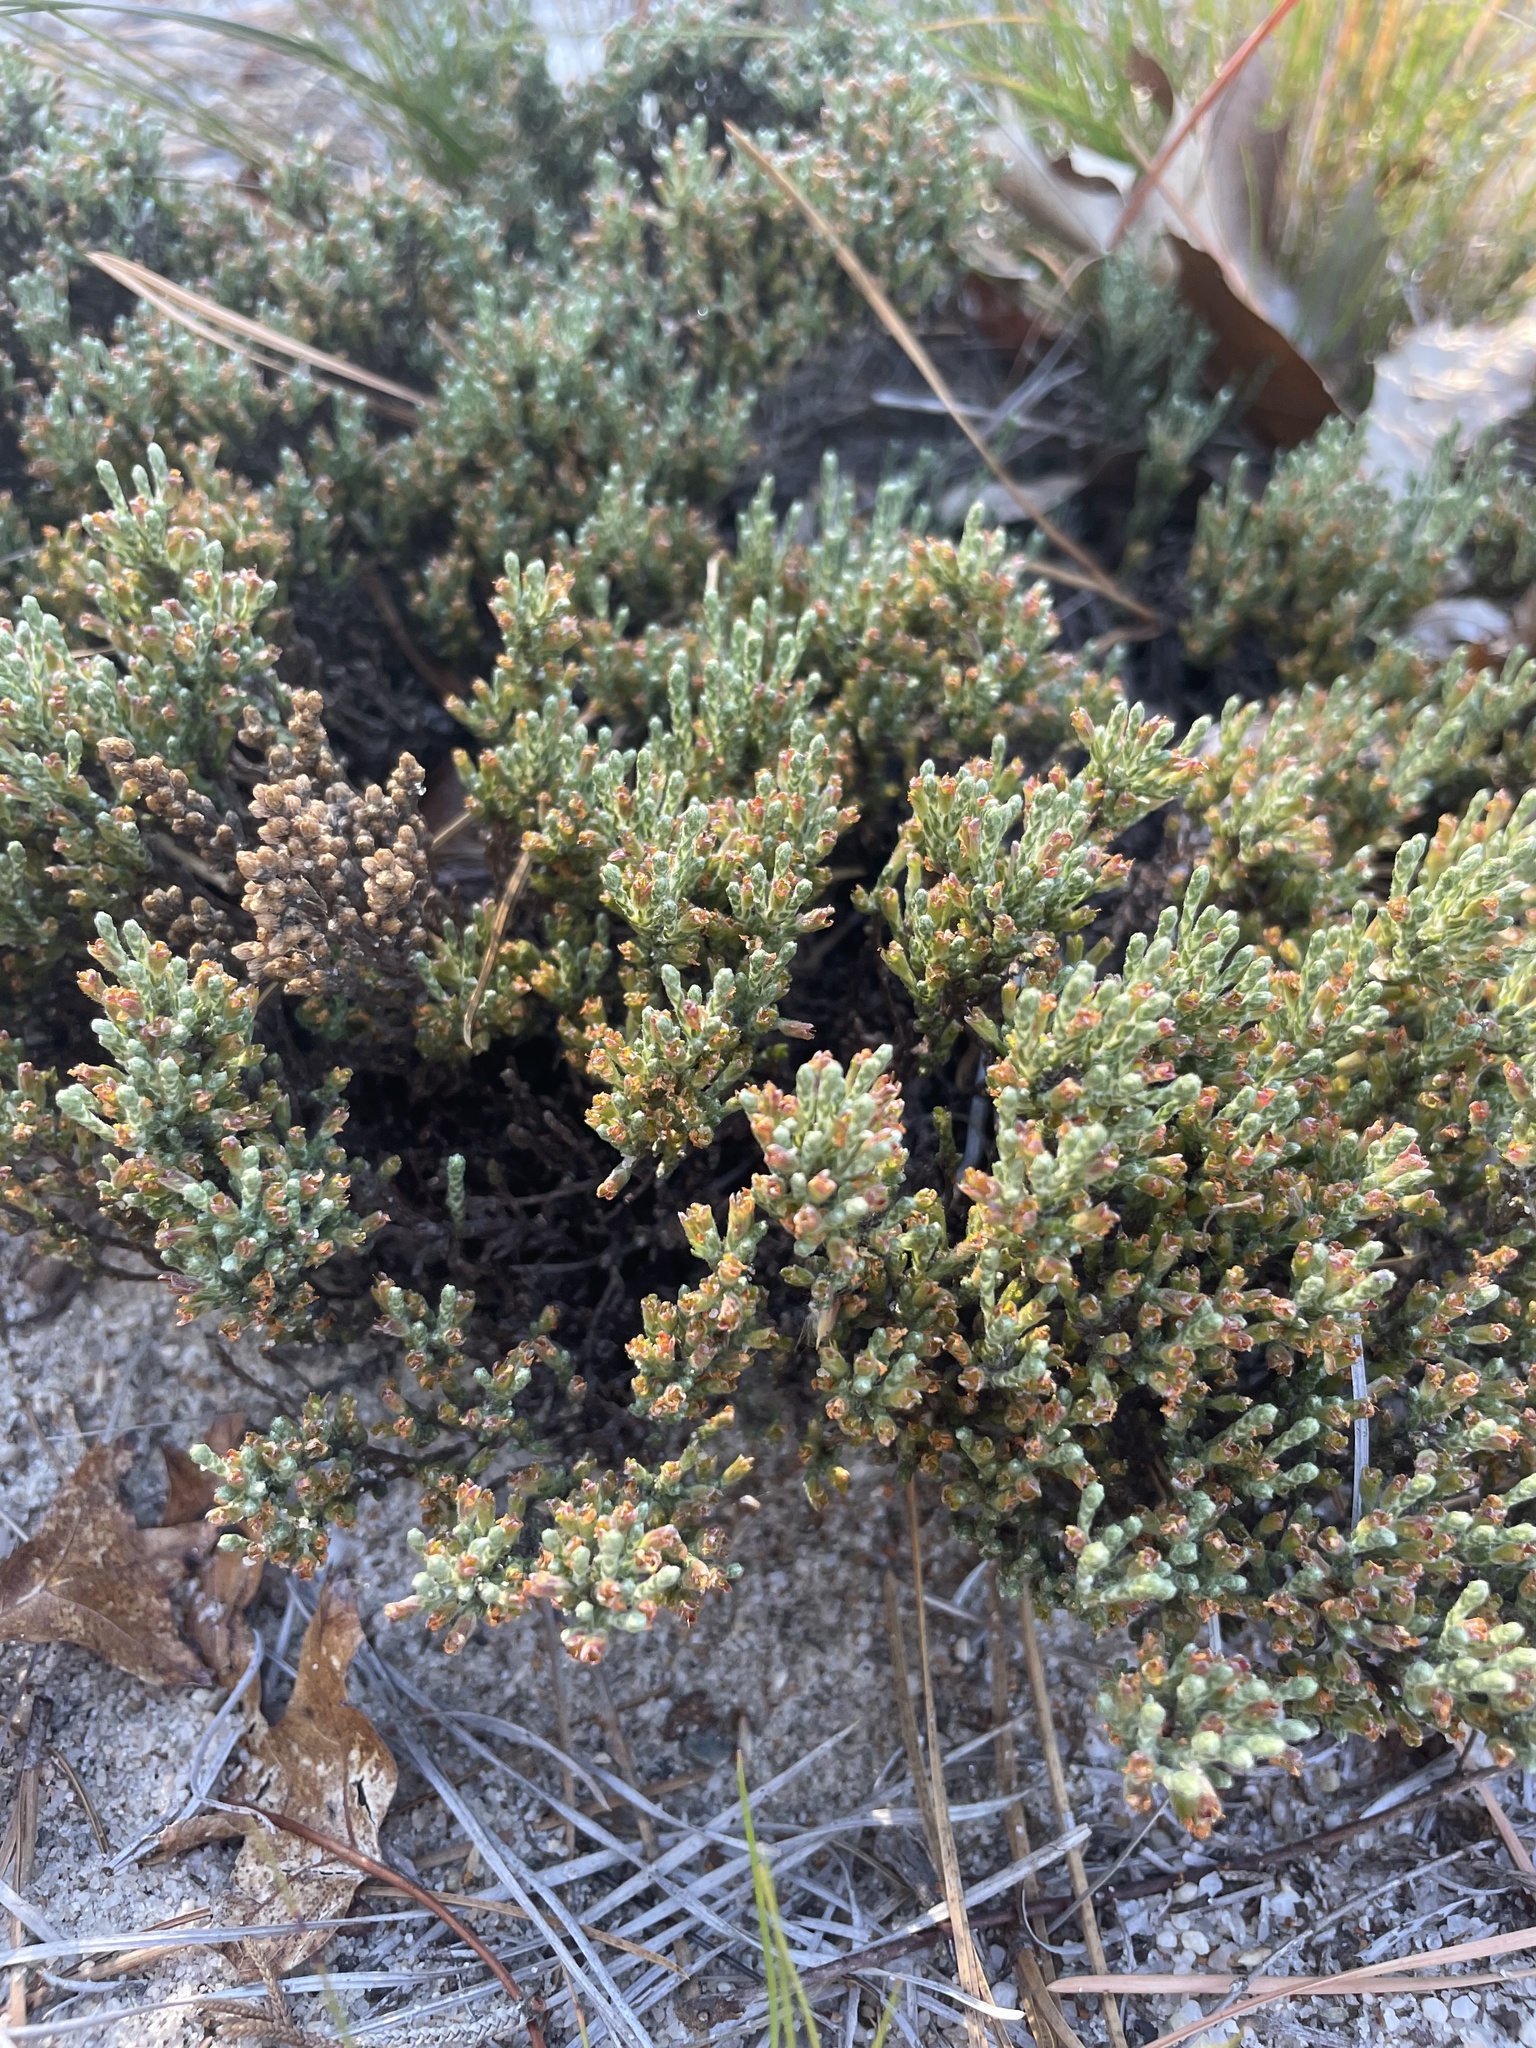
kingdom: Plantae
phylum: Tracheophyta
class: Magnoliopsida
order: Malvales
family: Cistaceae
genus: Hudsonia
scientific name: Hudsonia tomentosa
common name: Beach-heath
